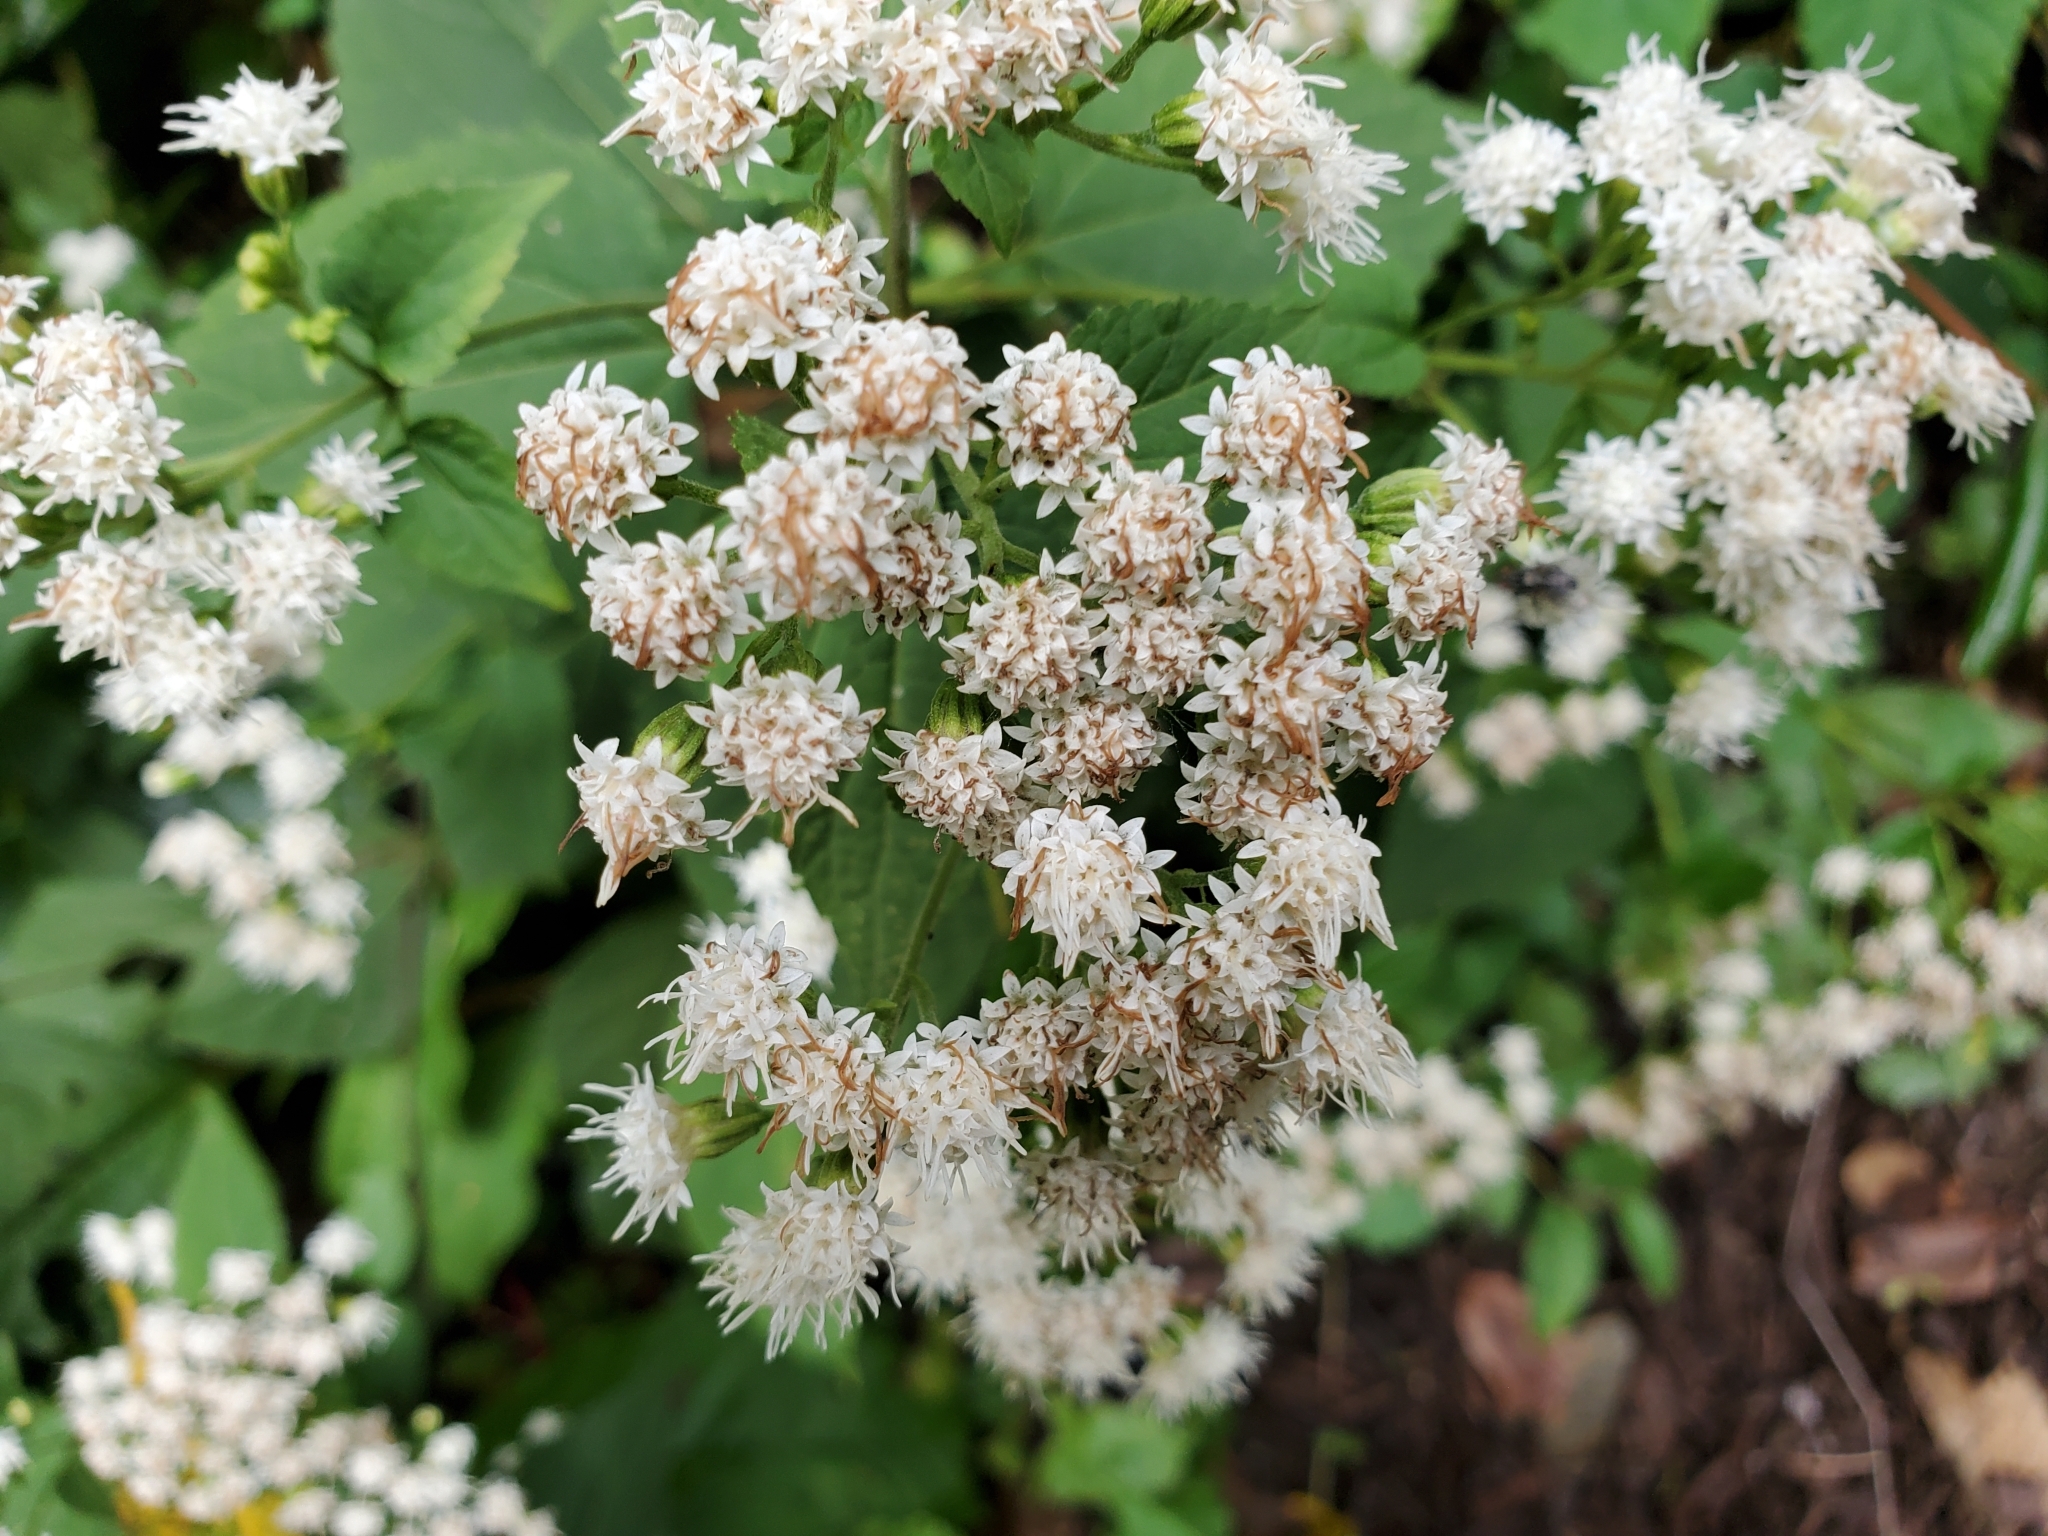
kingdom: Plantae
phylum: Tracheophyta
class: Magnoliopsida
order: Asterales
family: Asteraceae
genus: Ageratina
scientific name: Ageratina altissima
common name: White snakeroot
